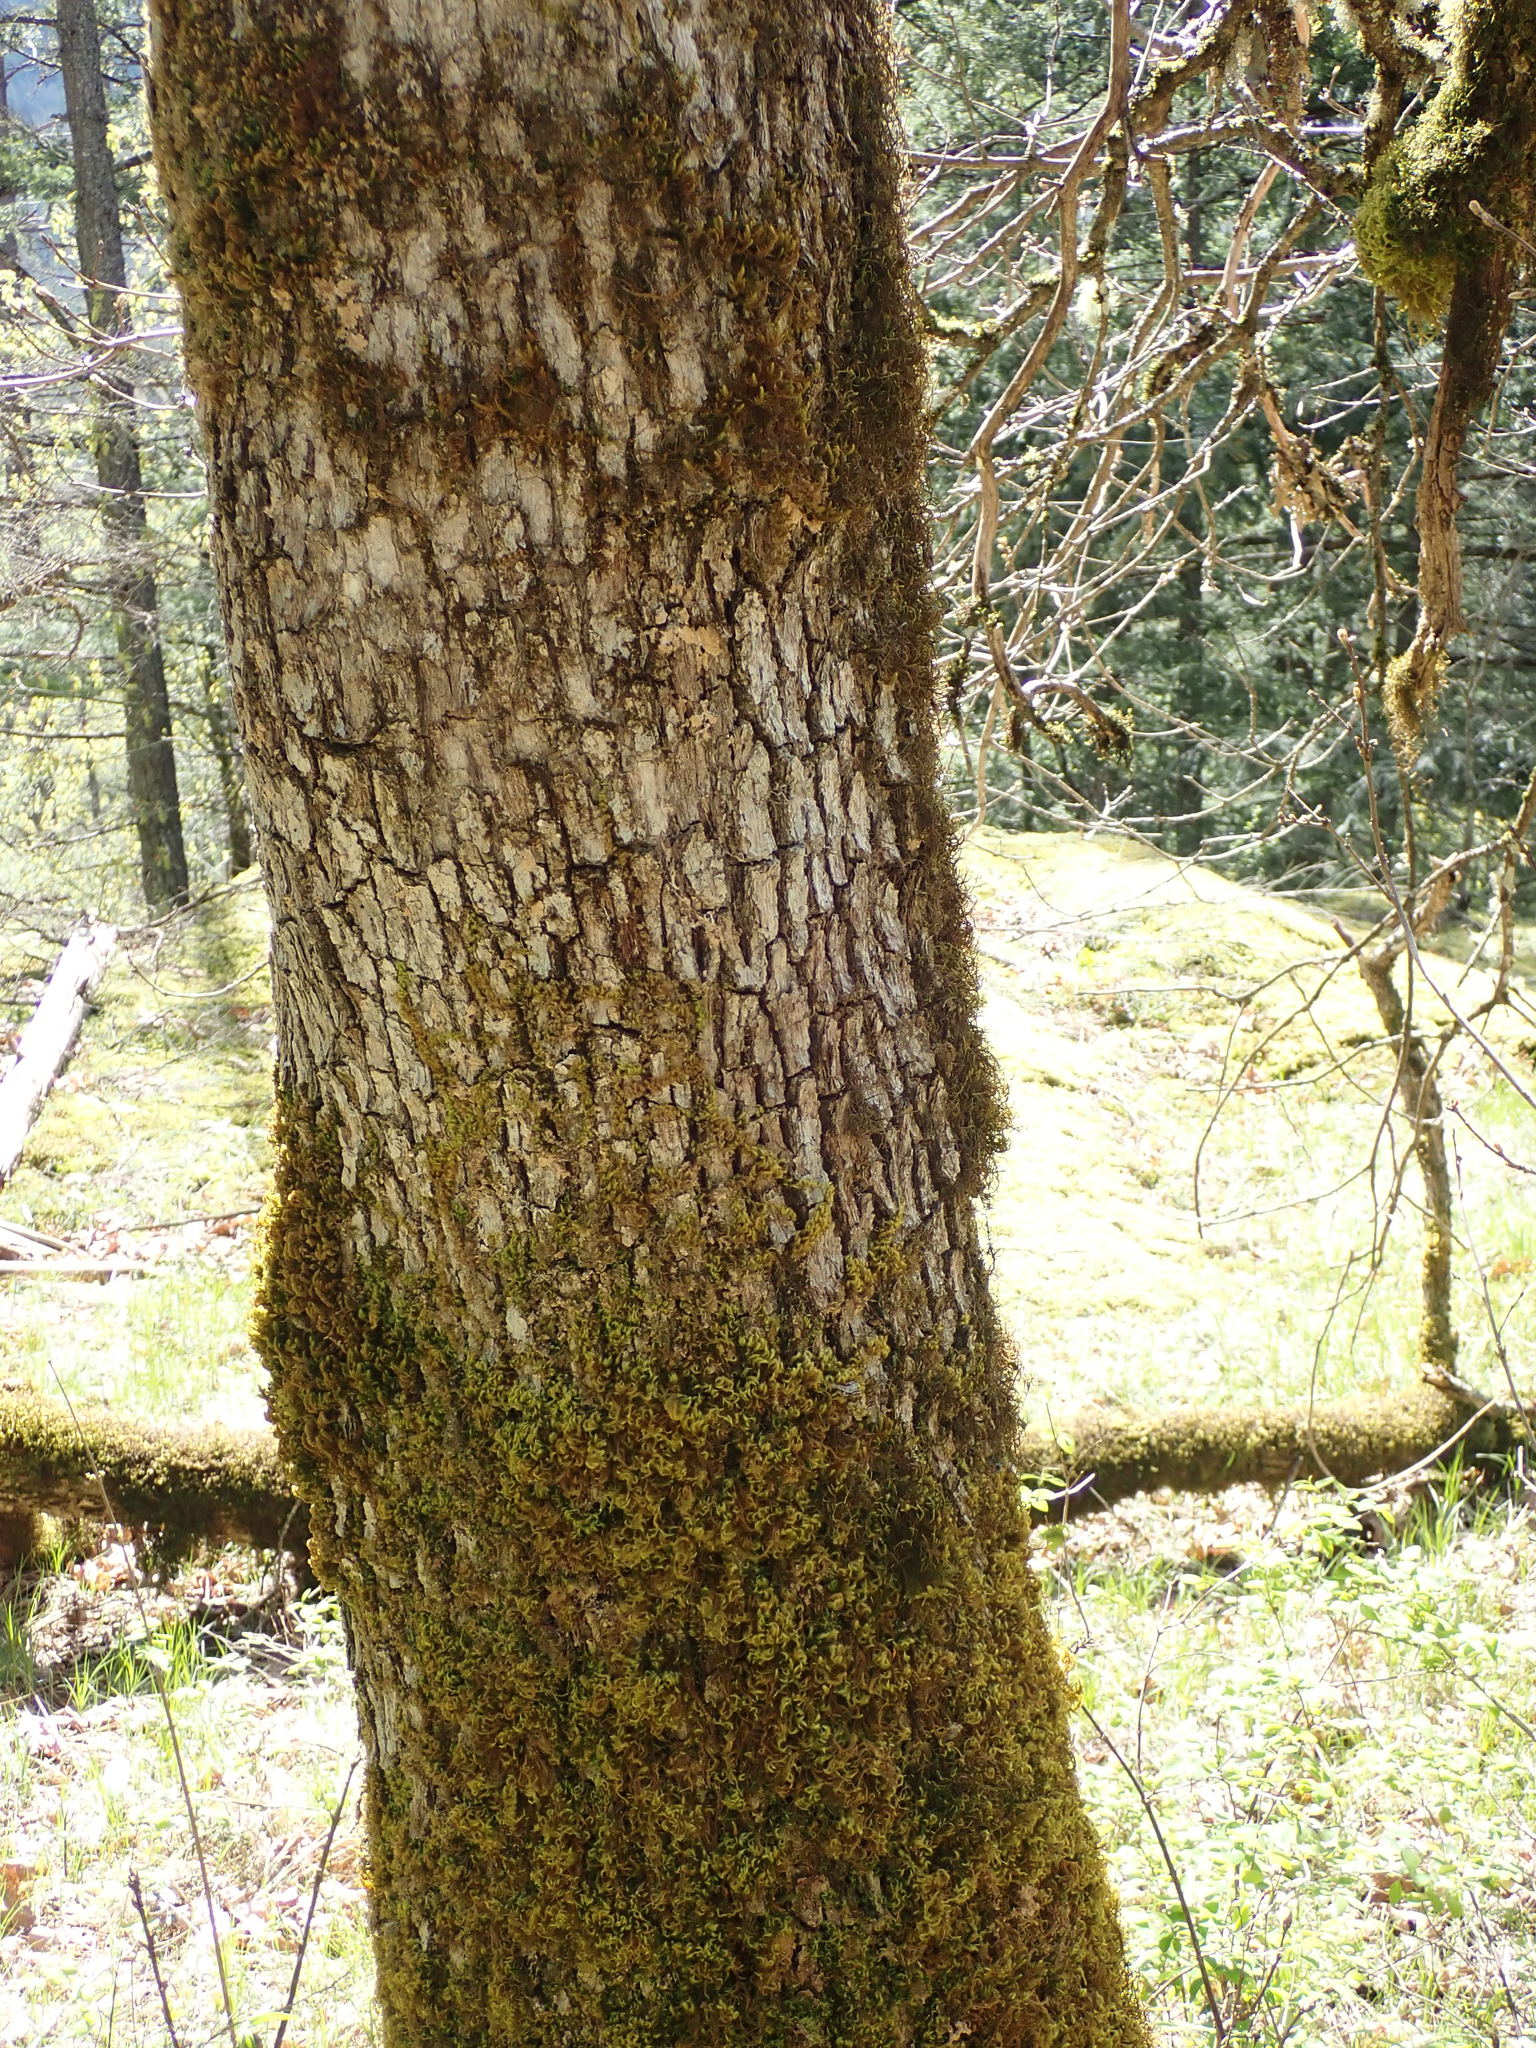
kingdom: Plantae
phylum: Tracheophyta
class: Magnoliopsida
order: Fagales
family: Fagaceae
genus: Quercus
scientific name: Quercus garryana
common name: Garry oak
